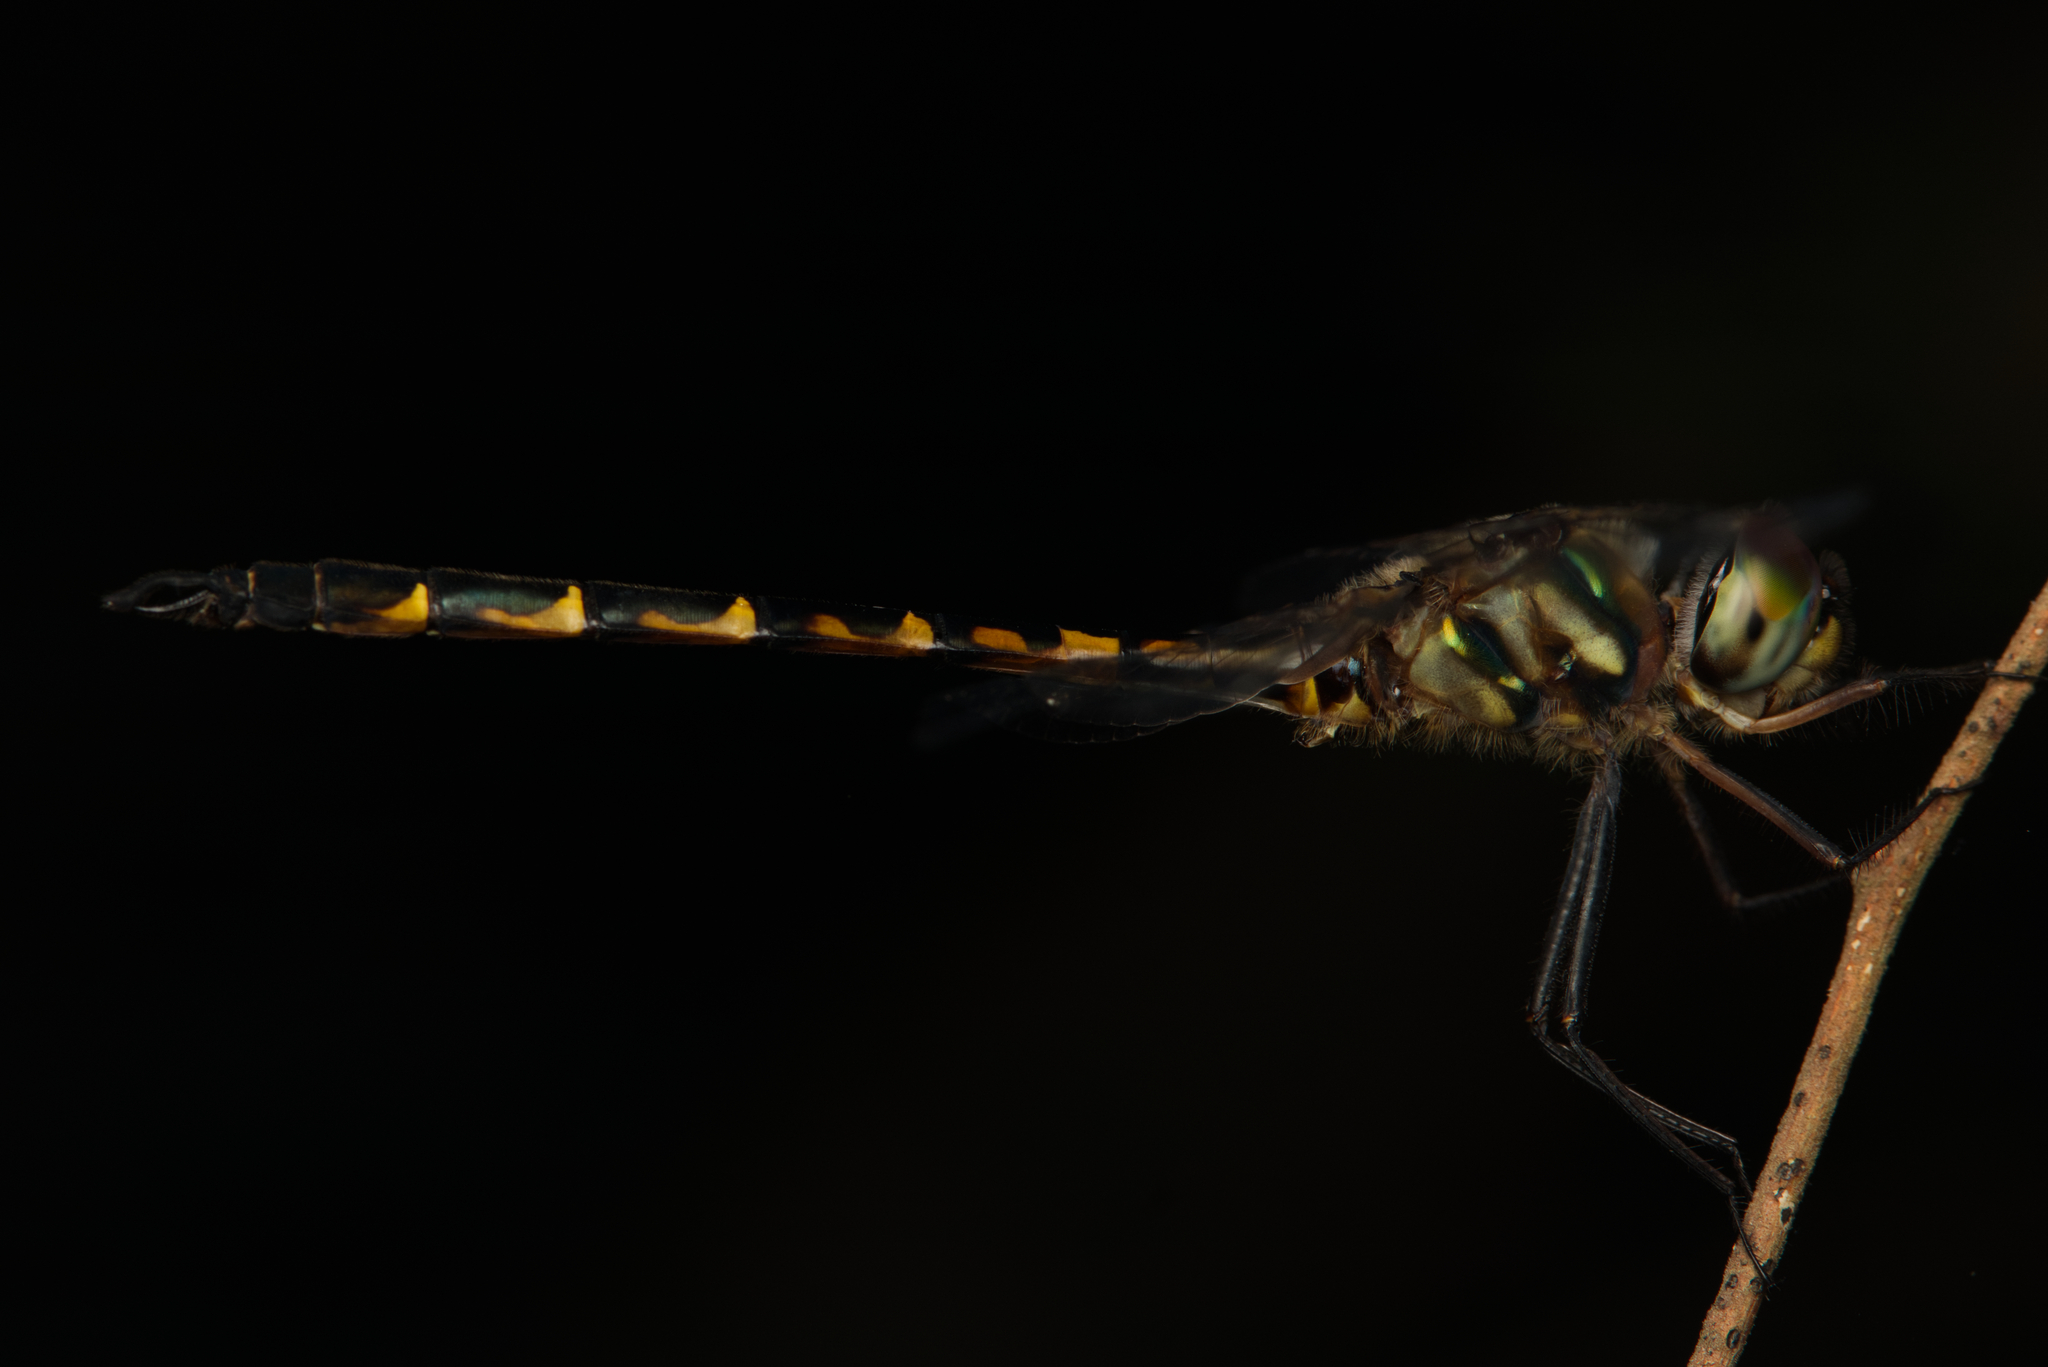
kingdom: Animalia
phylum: Arthropoda
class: Insecta
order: Odonata
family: Corduliidae
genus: Hemicordulia
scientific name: Hemicordulia australiae
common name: Sentry dragonfly
